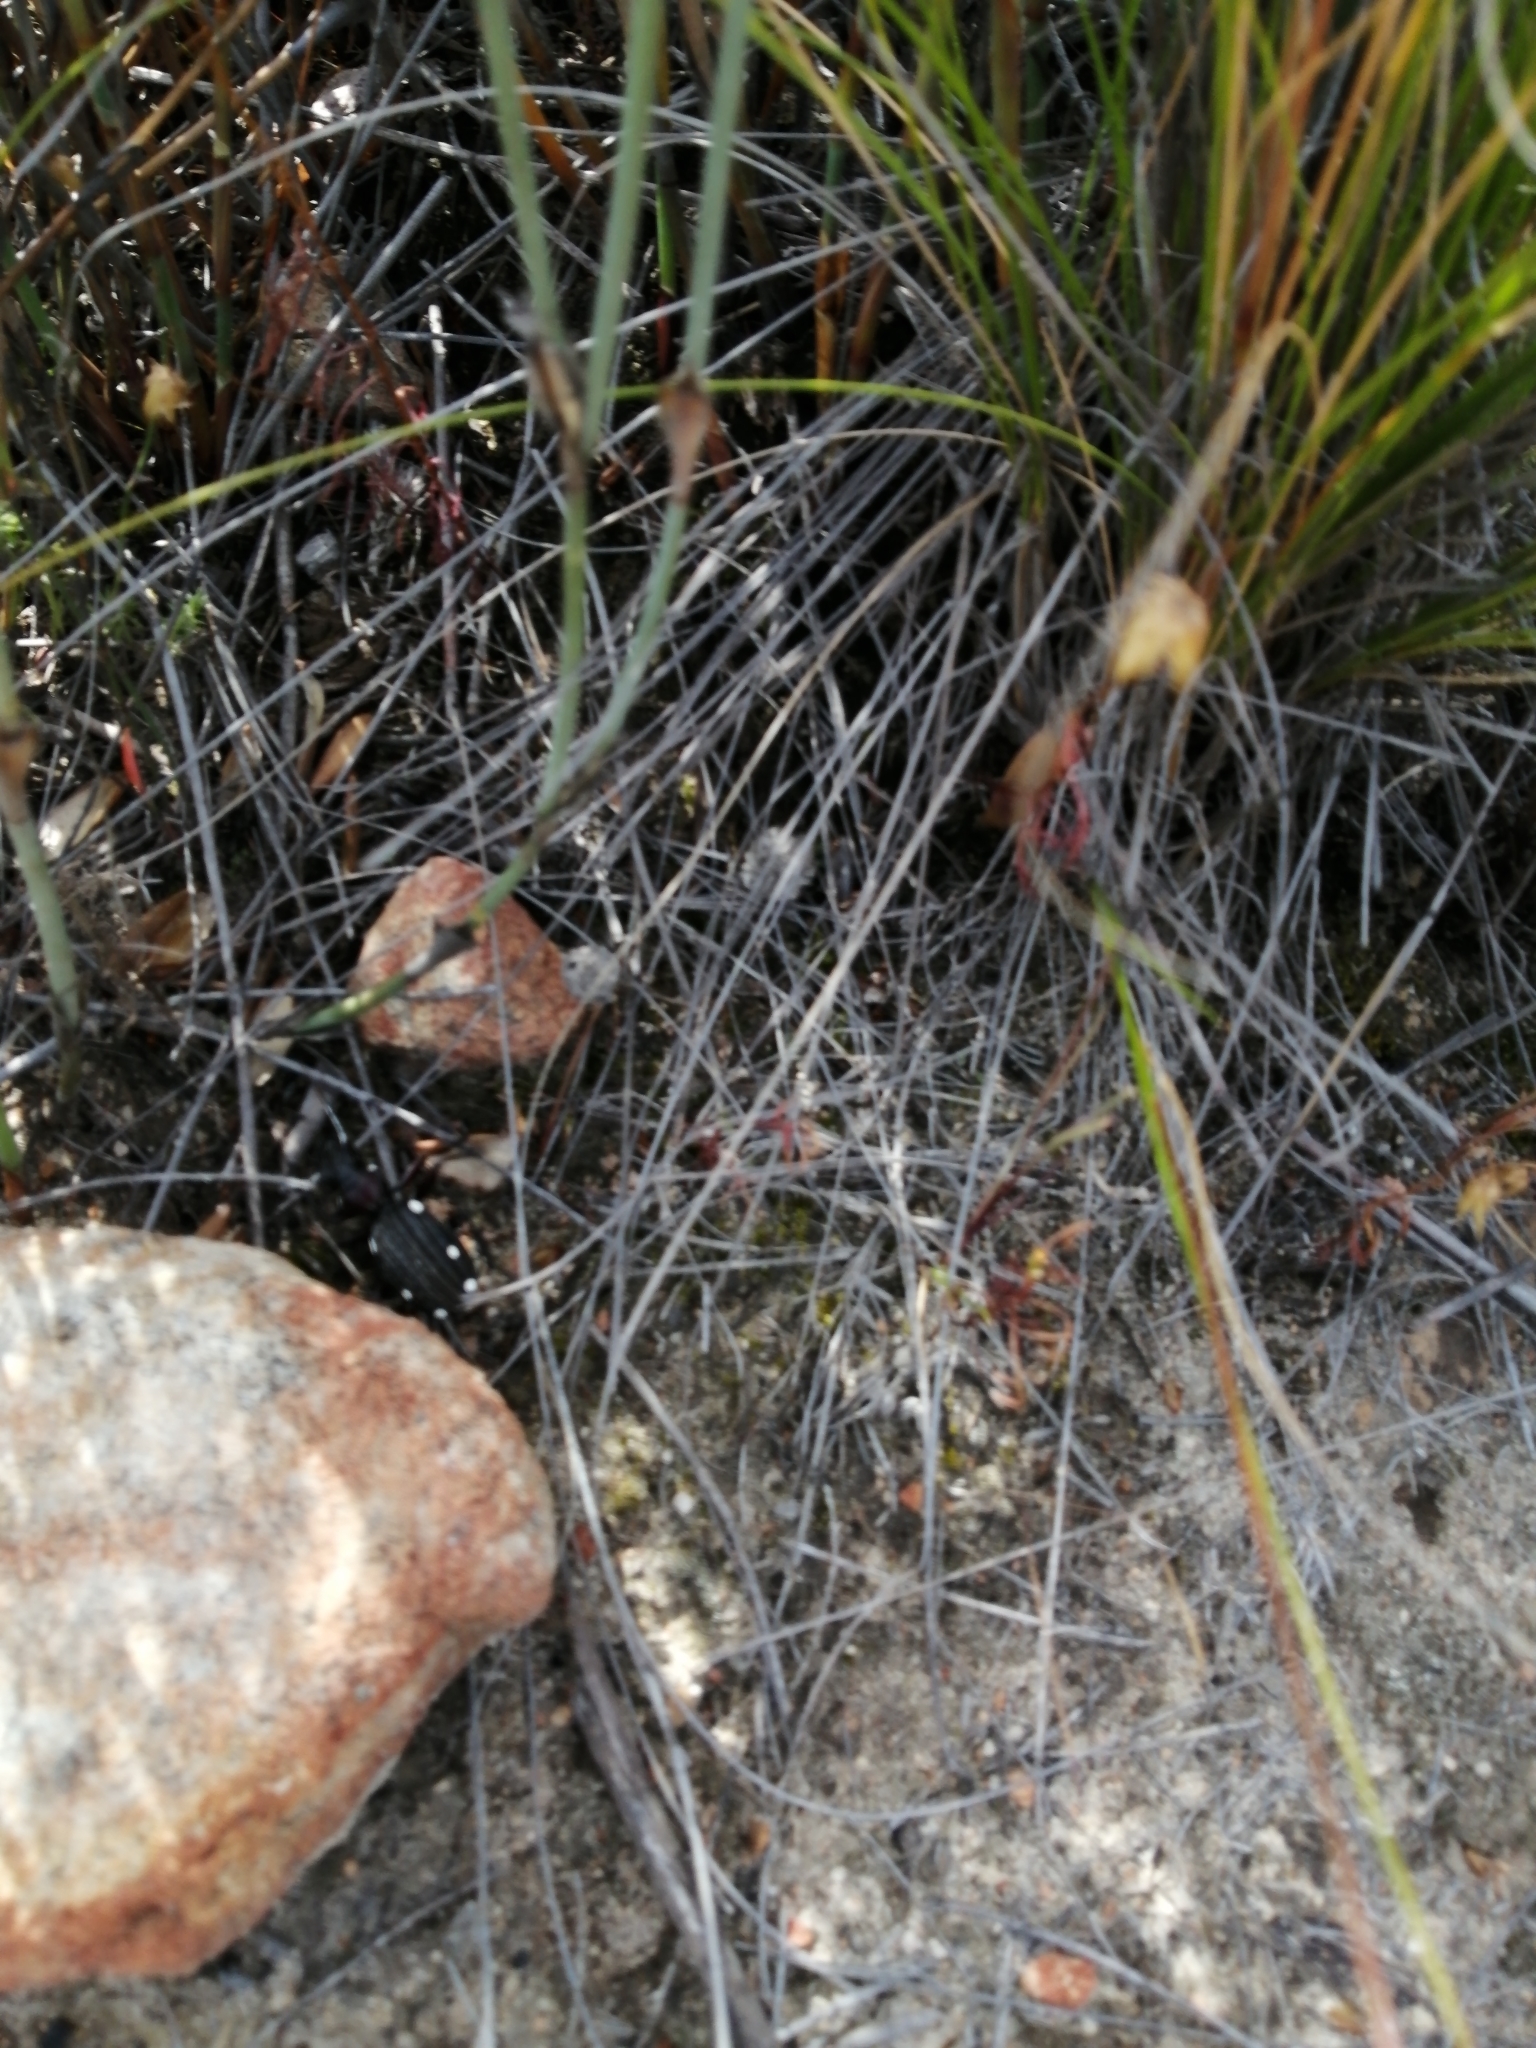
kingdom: Animalia
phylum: Arthropoda
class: Insecta
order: Coleoptera
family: Carabidae
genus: Anthia
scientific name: Anthia decemguttata
